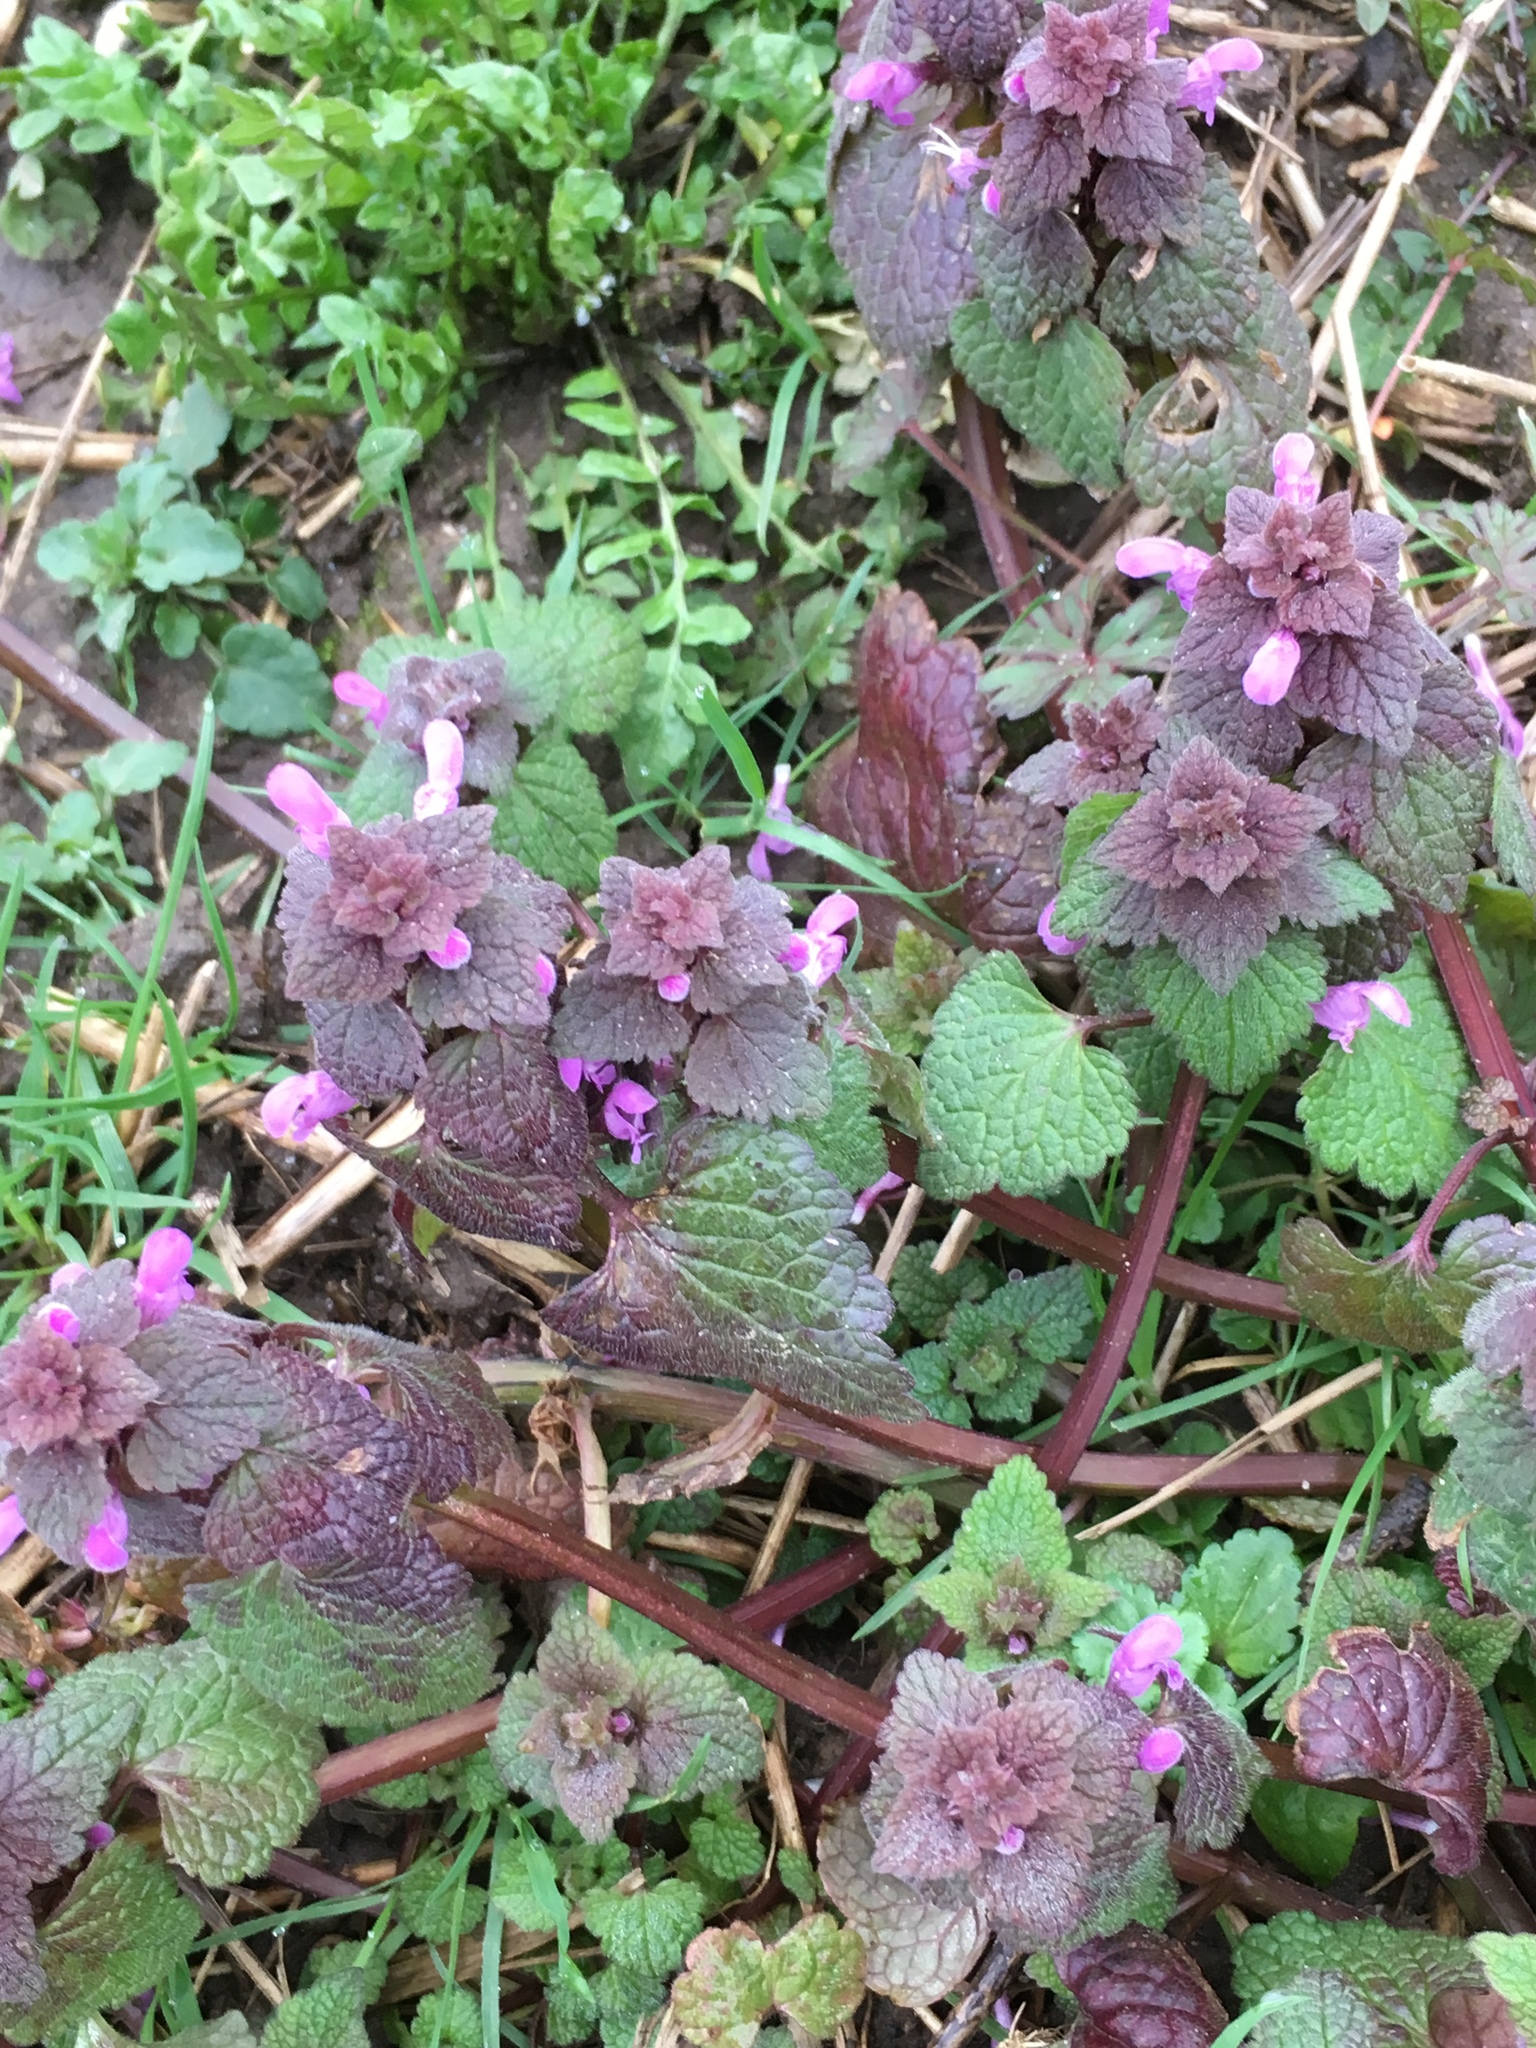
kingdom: Plantae
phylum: Tracheophyta
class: Magnoliopsida
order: Lamiales
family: Lamiaceae
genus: Lamium
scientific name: Lamium purpureum
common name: Red dead-nettle
